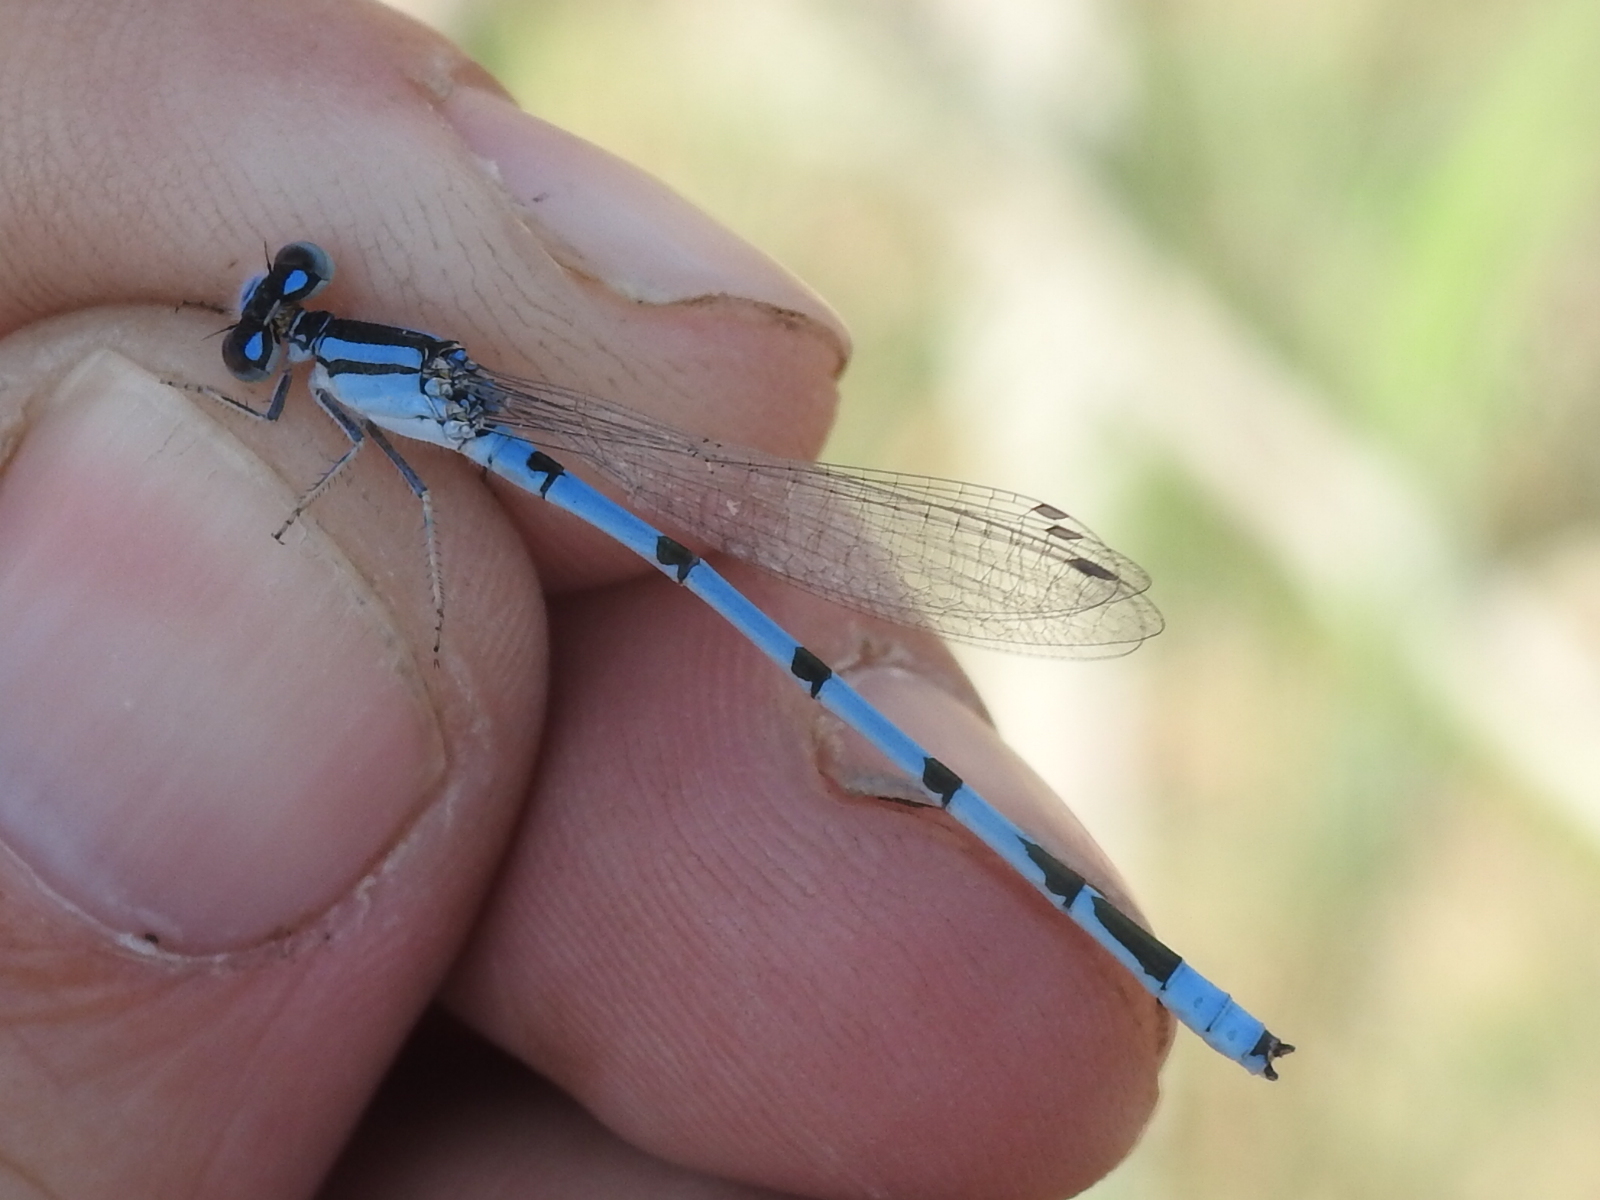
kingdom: Animalia
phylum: Arthropoda
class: Insecta
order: Odonata
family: Coenagrionidae
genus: Enallagma
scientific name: Enallagma civile
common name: Damselfly
